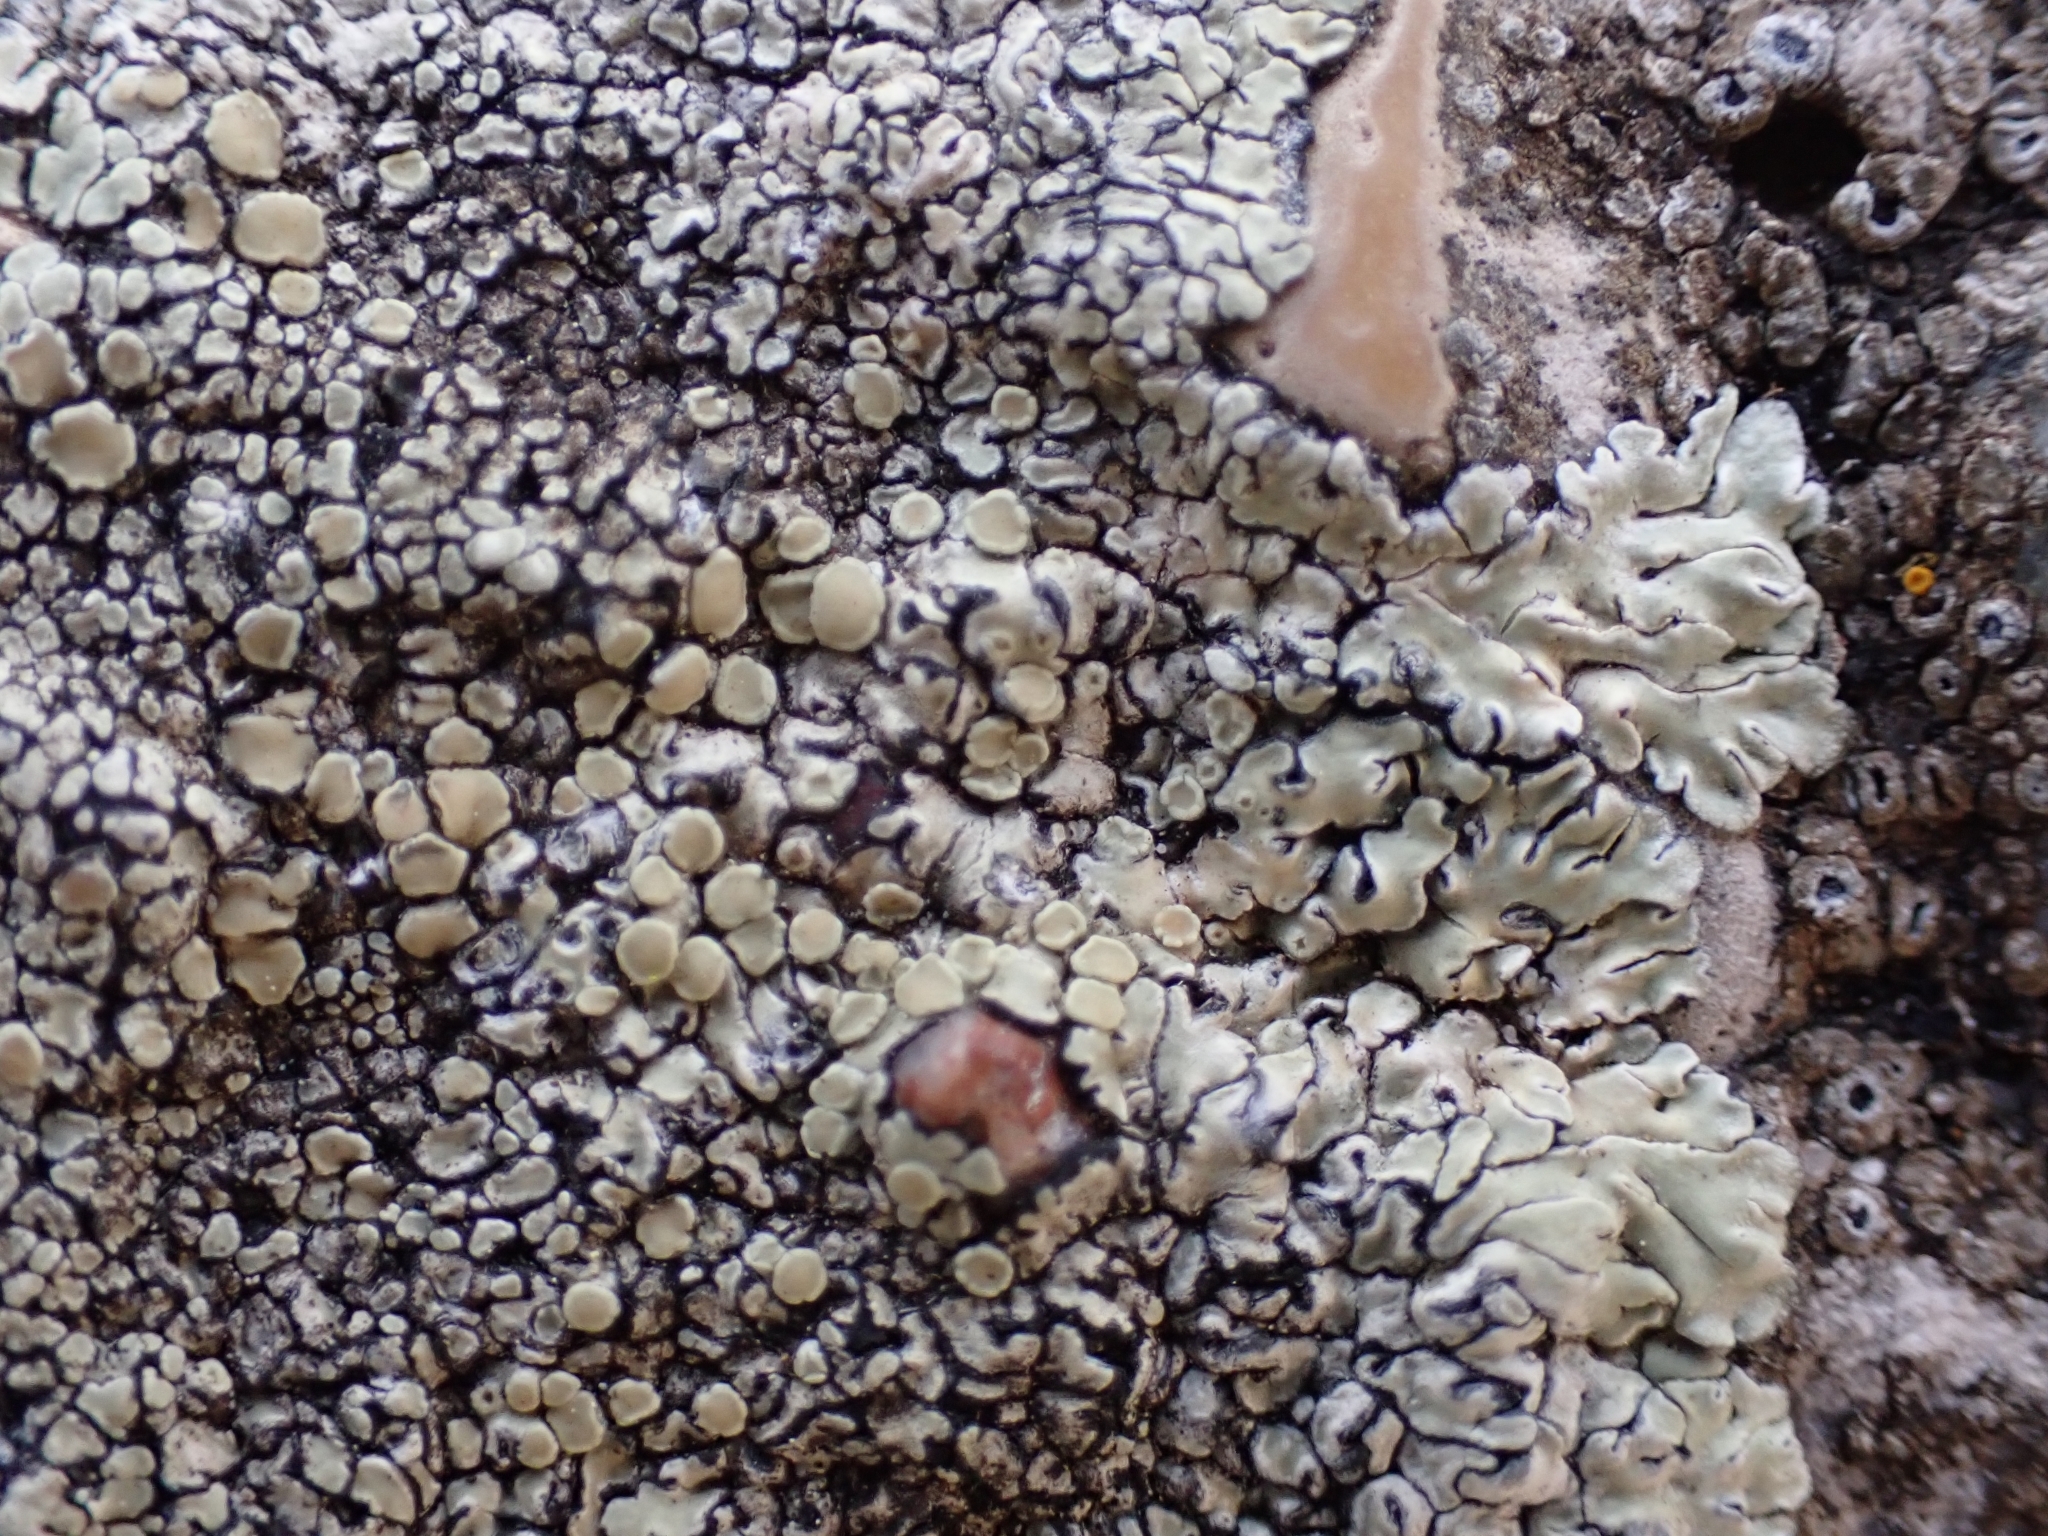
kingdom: Fungi
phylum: Ascomycota
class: Lecanoromycetes
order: Lecanorales
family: Lecanoraceae
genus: Protoparmeliopsis
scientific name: Protoparmeliopsis muralis
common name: Stonewall rim lichen
